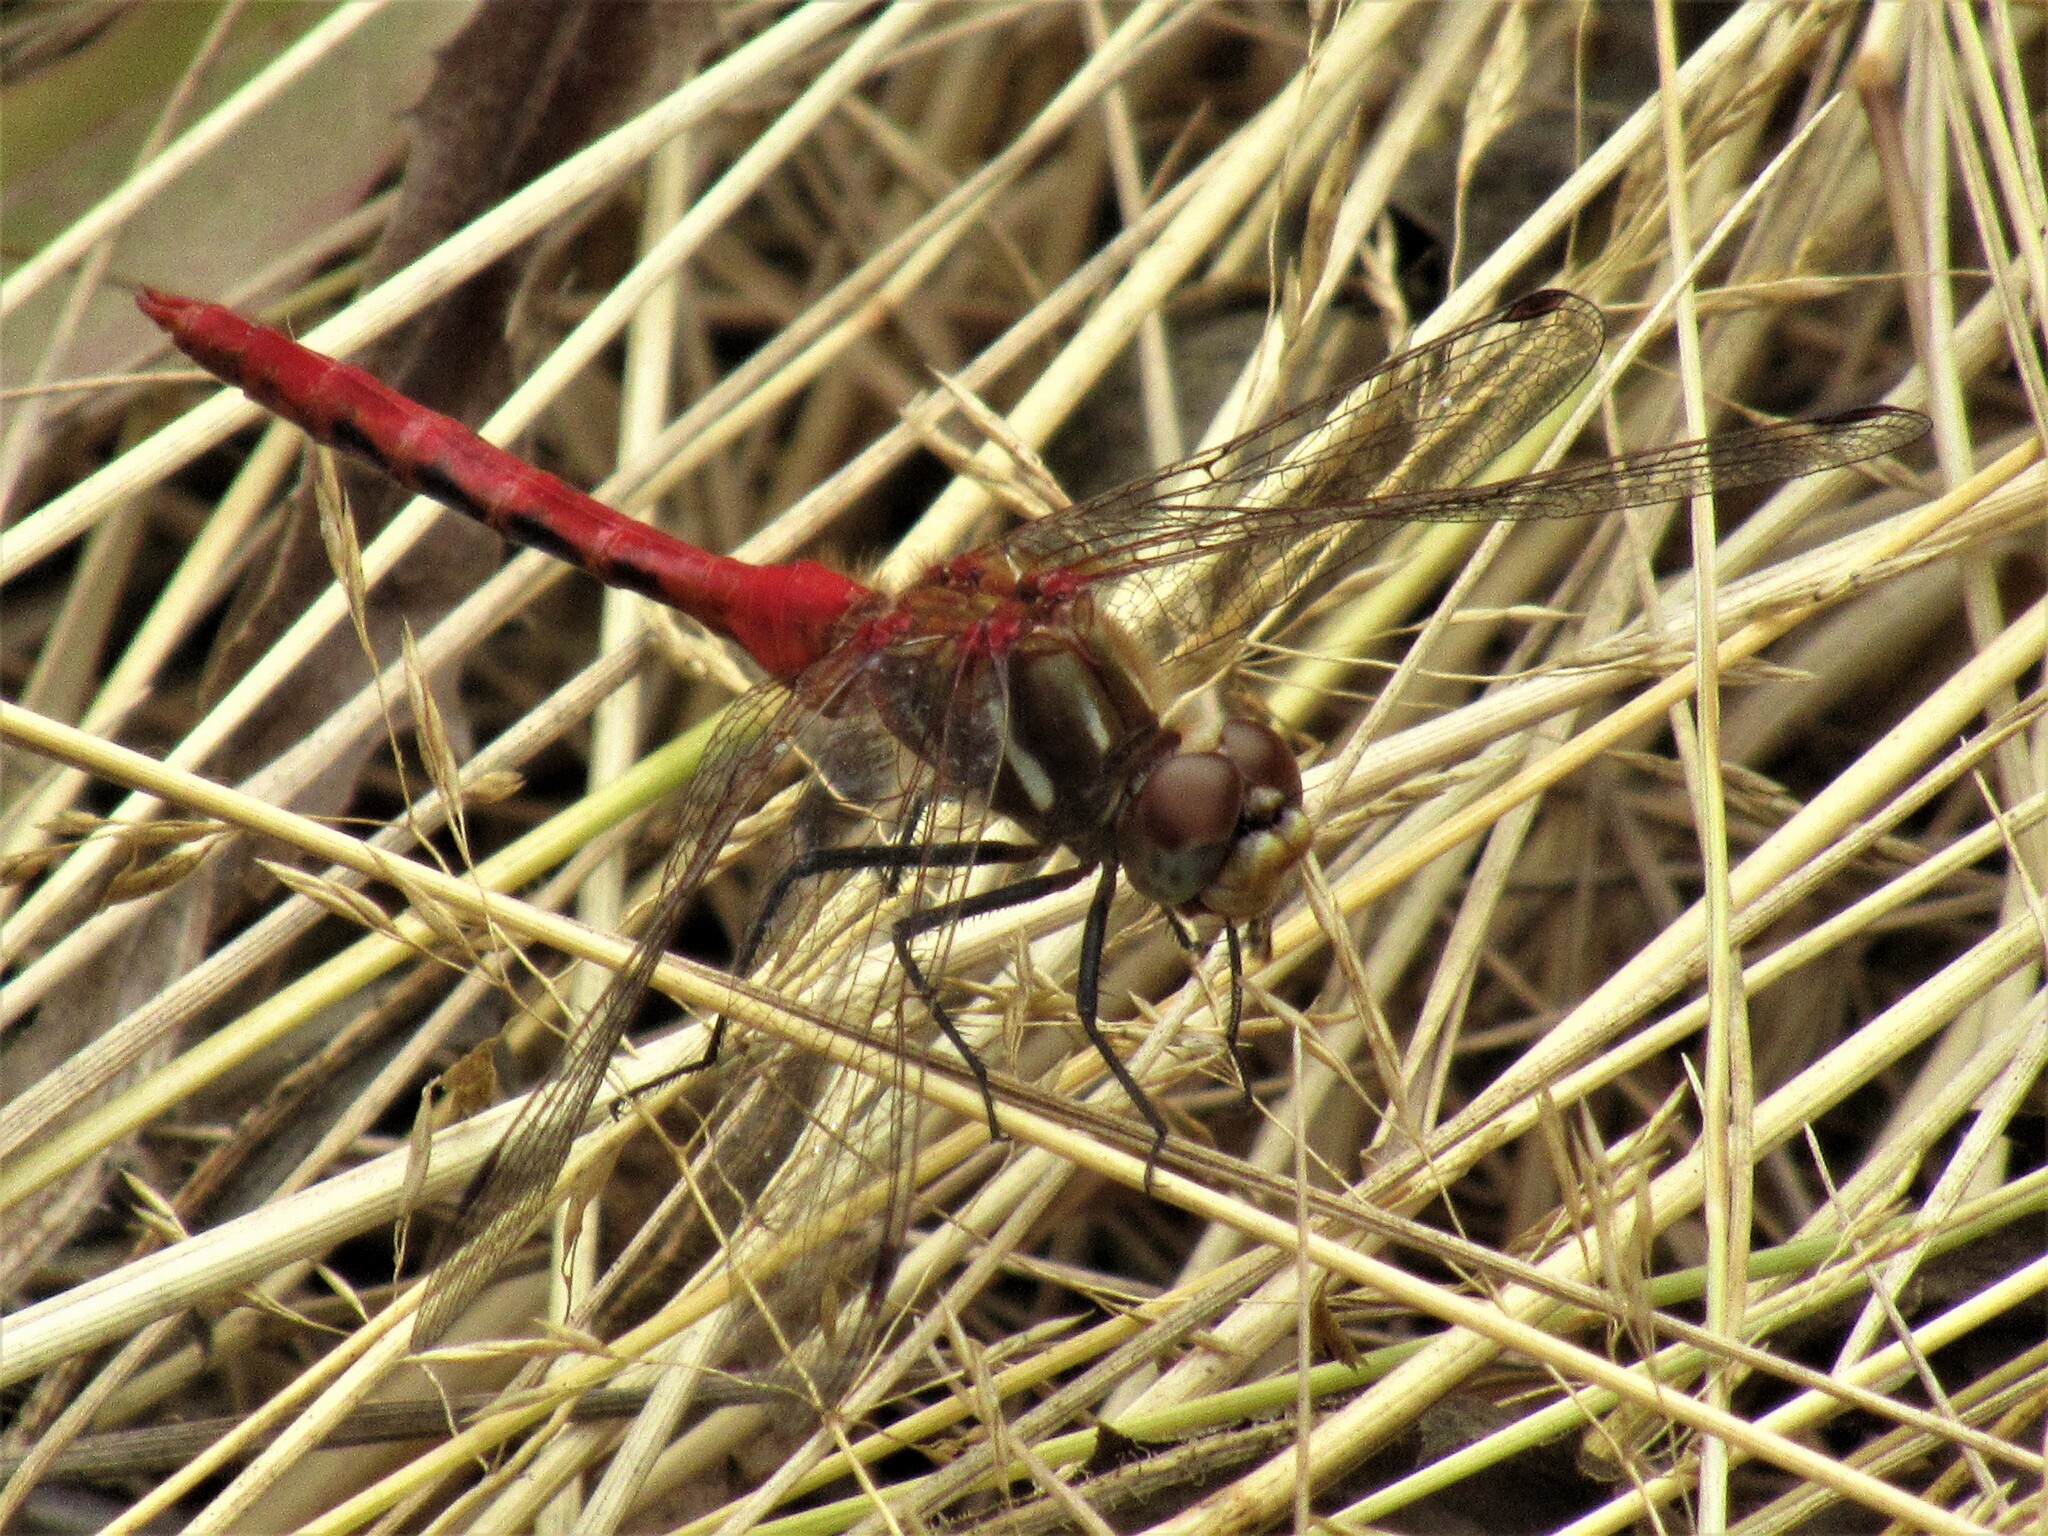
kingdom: Animalia
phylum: Arthropoda
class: Insecta
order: Odonata
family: Libellulidae
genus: Sympetrum
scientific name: Sympetrum pallipes
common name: Striped meadowhawk
